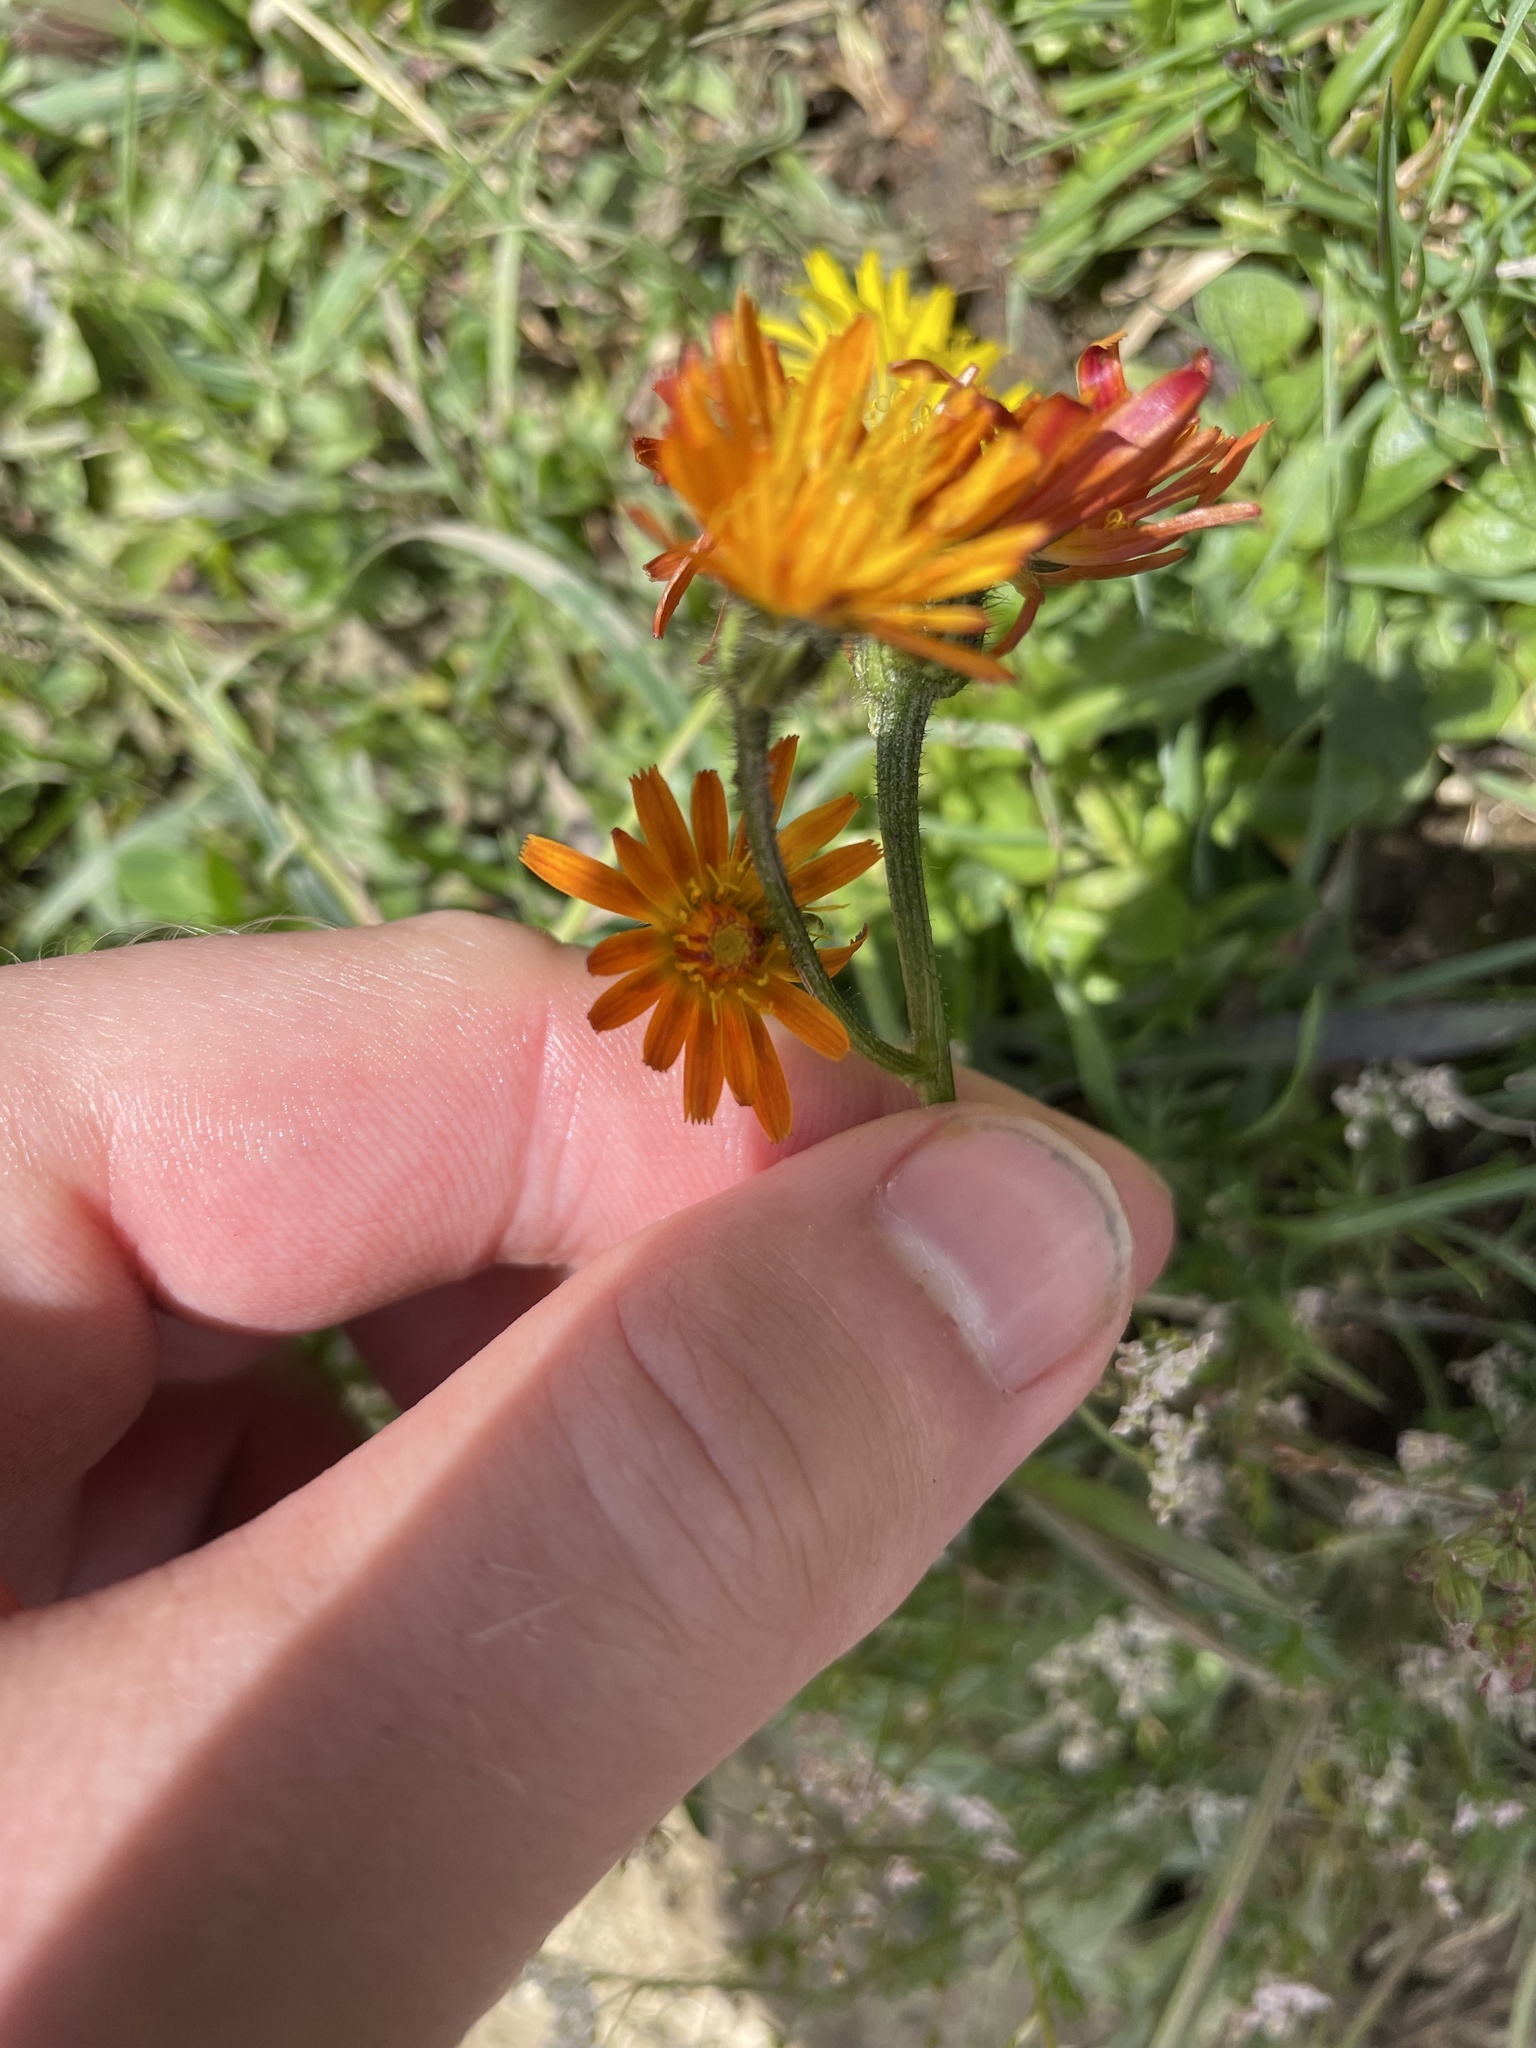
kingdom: Plantae
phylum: Tracheophyta
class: Magnoliopsida
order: Asterales
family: Asteraceae
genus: Crepis
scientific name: Crepis aurea
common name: Golden hawk's-beard
